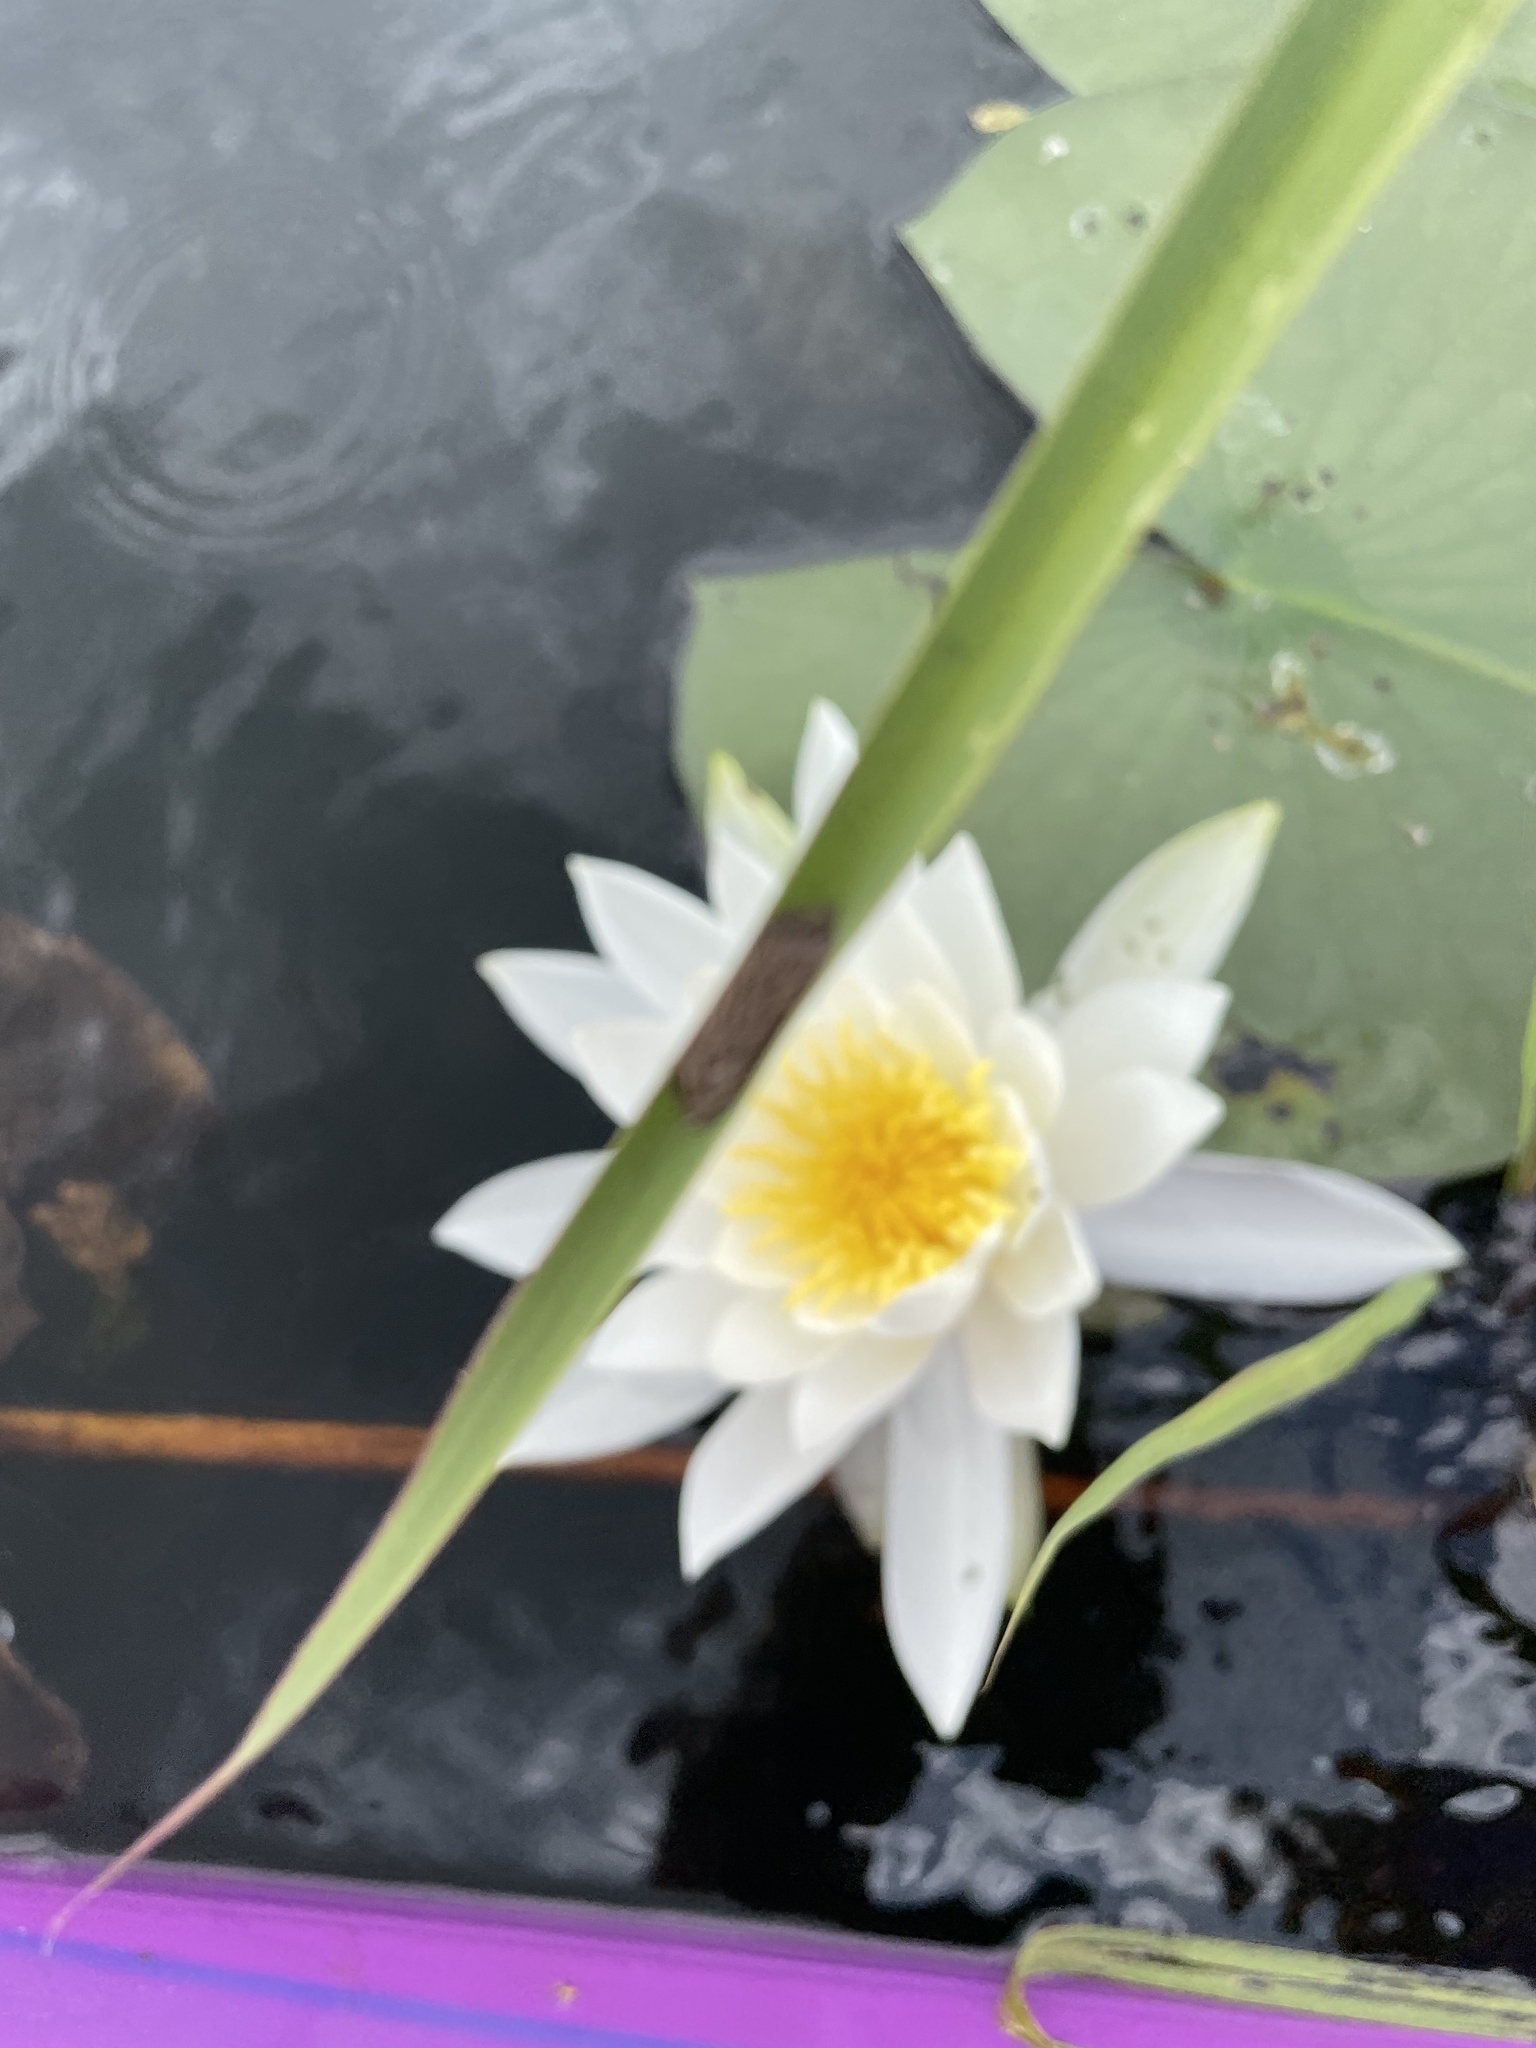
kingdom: Plantae
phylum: Tracheophyta
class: Magnoliopsida
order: Nymphaeales
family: Nymphaeaceae
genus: Nymphaea
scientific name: Nymphaea odorata
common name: Fragrant water-lily
